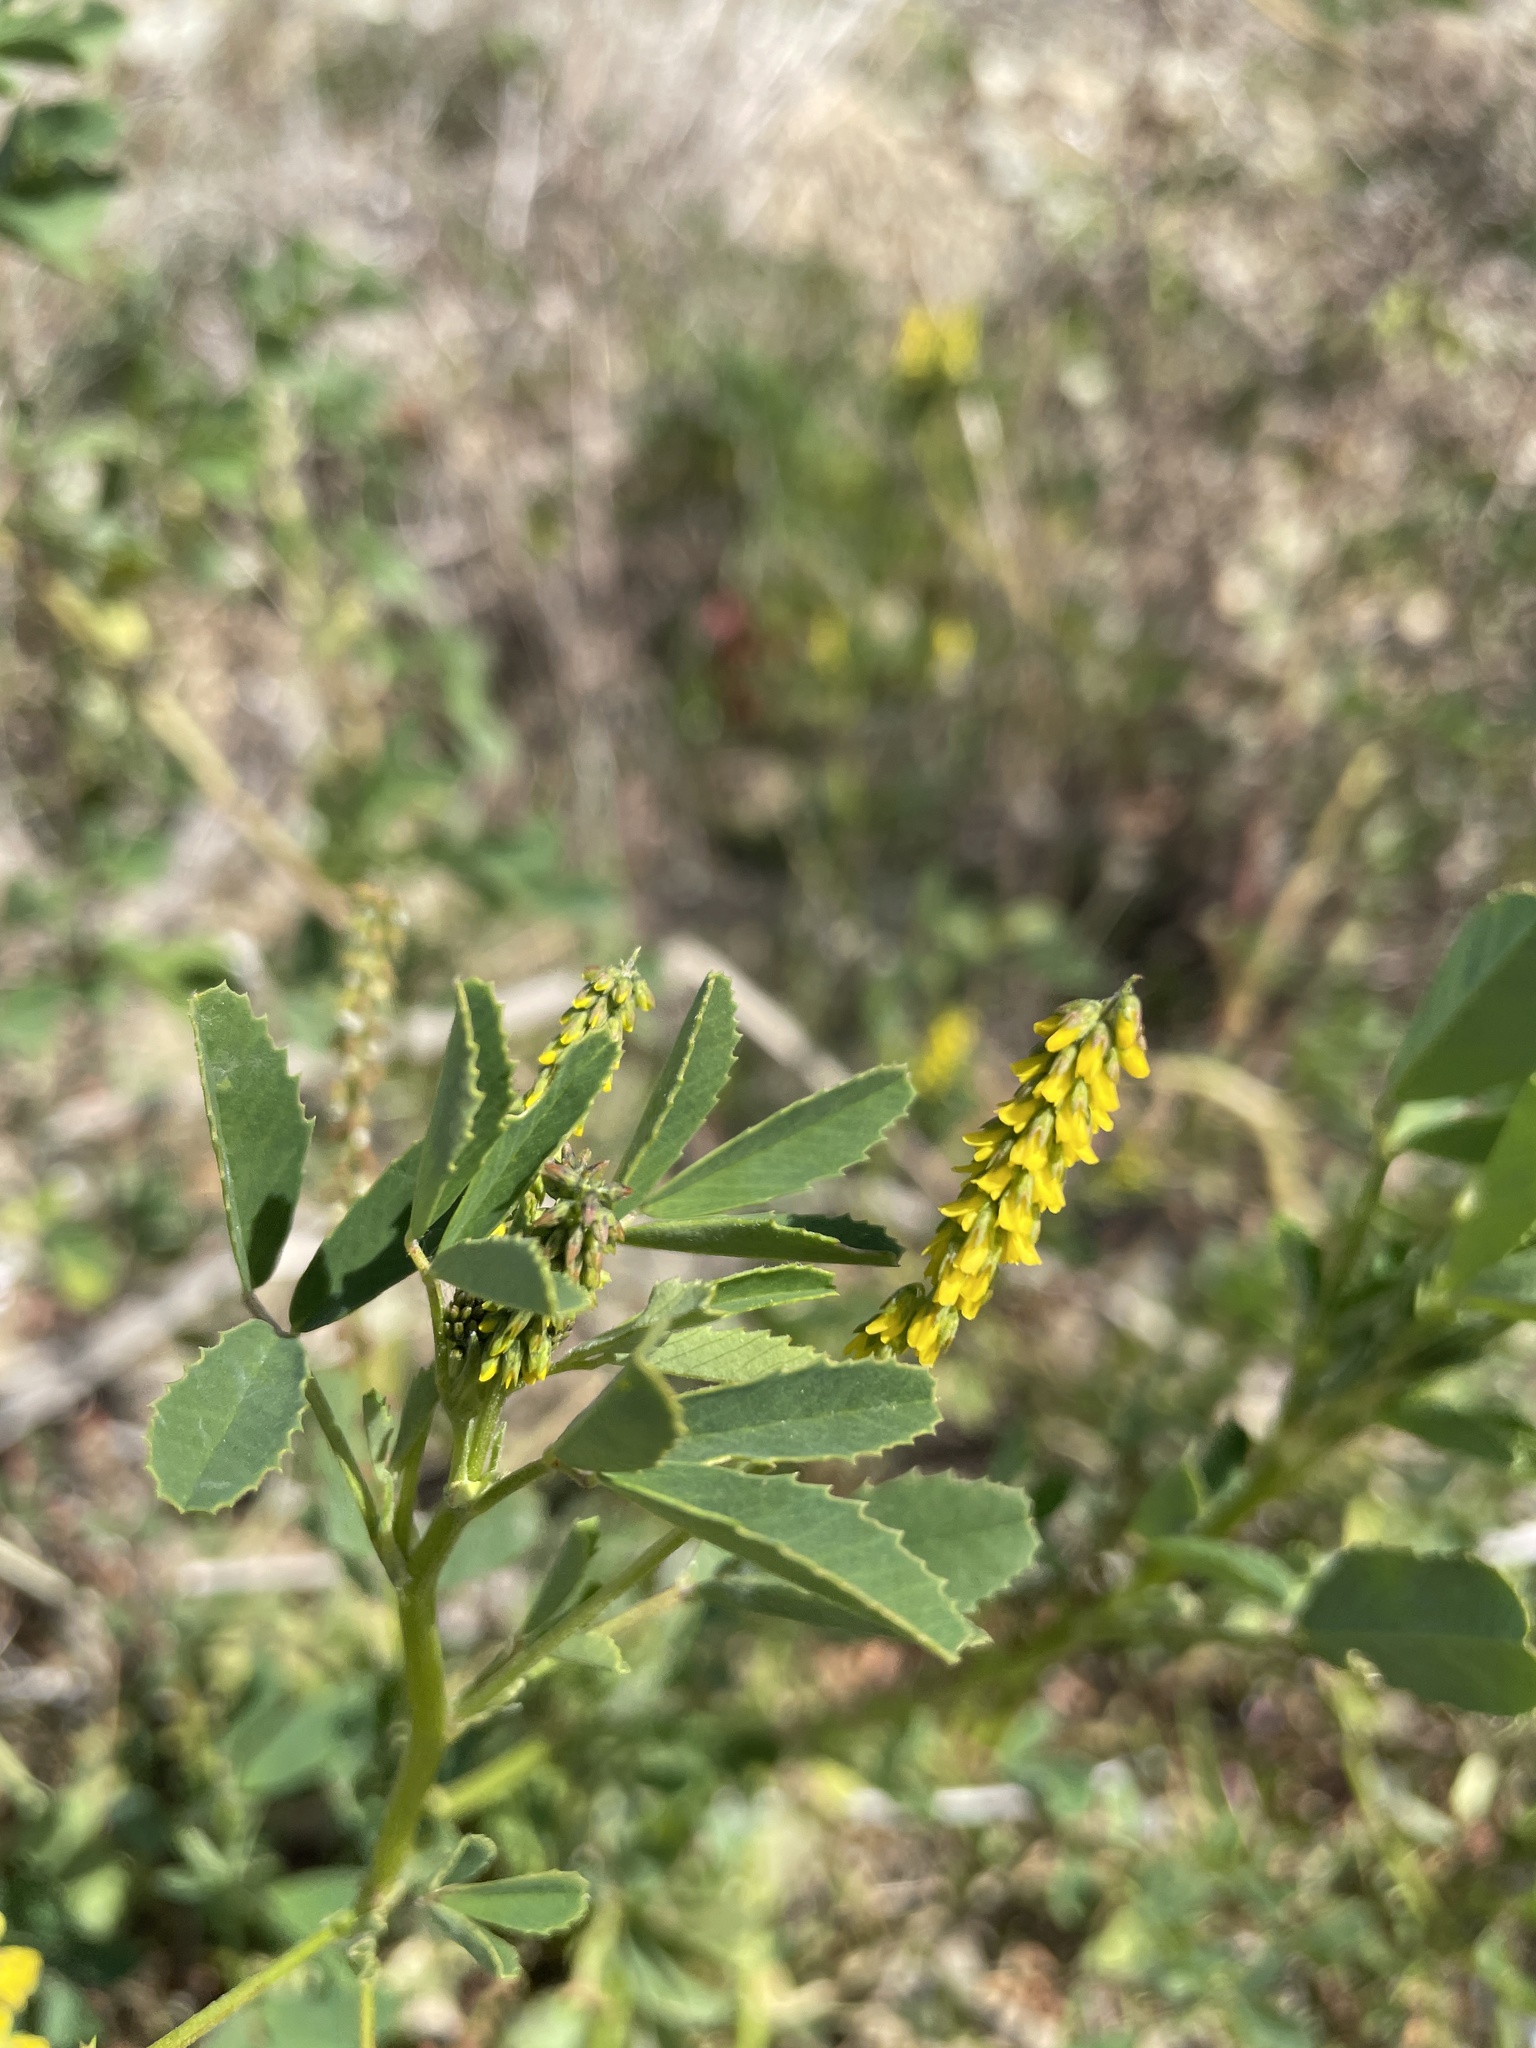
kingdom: Plantae
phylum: Tracheophyta
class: Magnoliopsida
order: Fabales
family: Fabaceae
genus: Melilotus
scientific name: Melilotus indicus
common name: Small melilot
